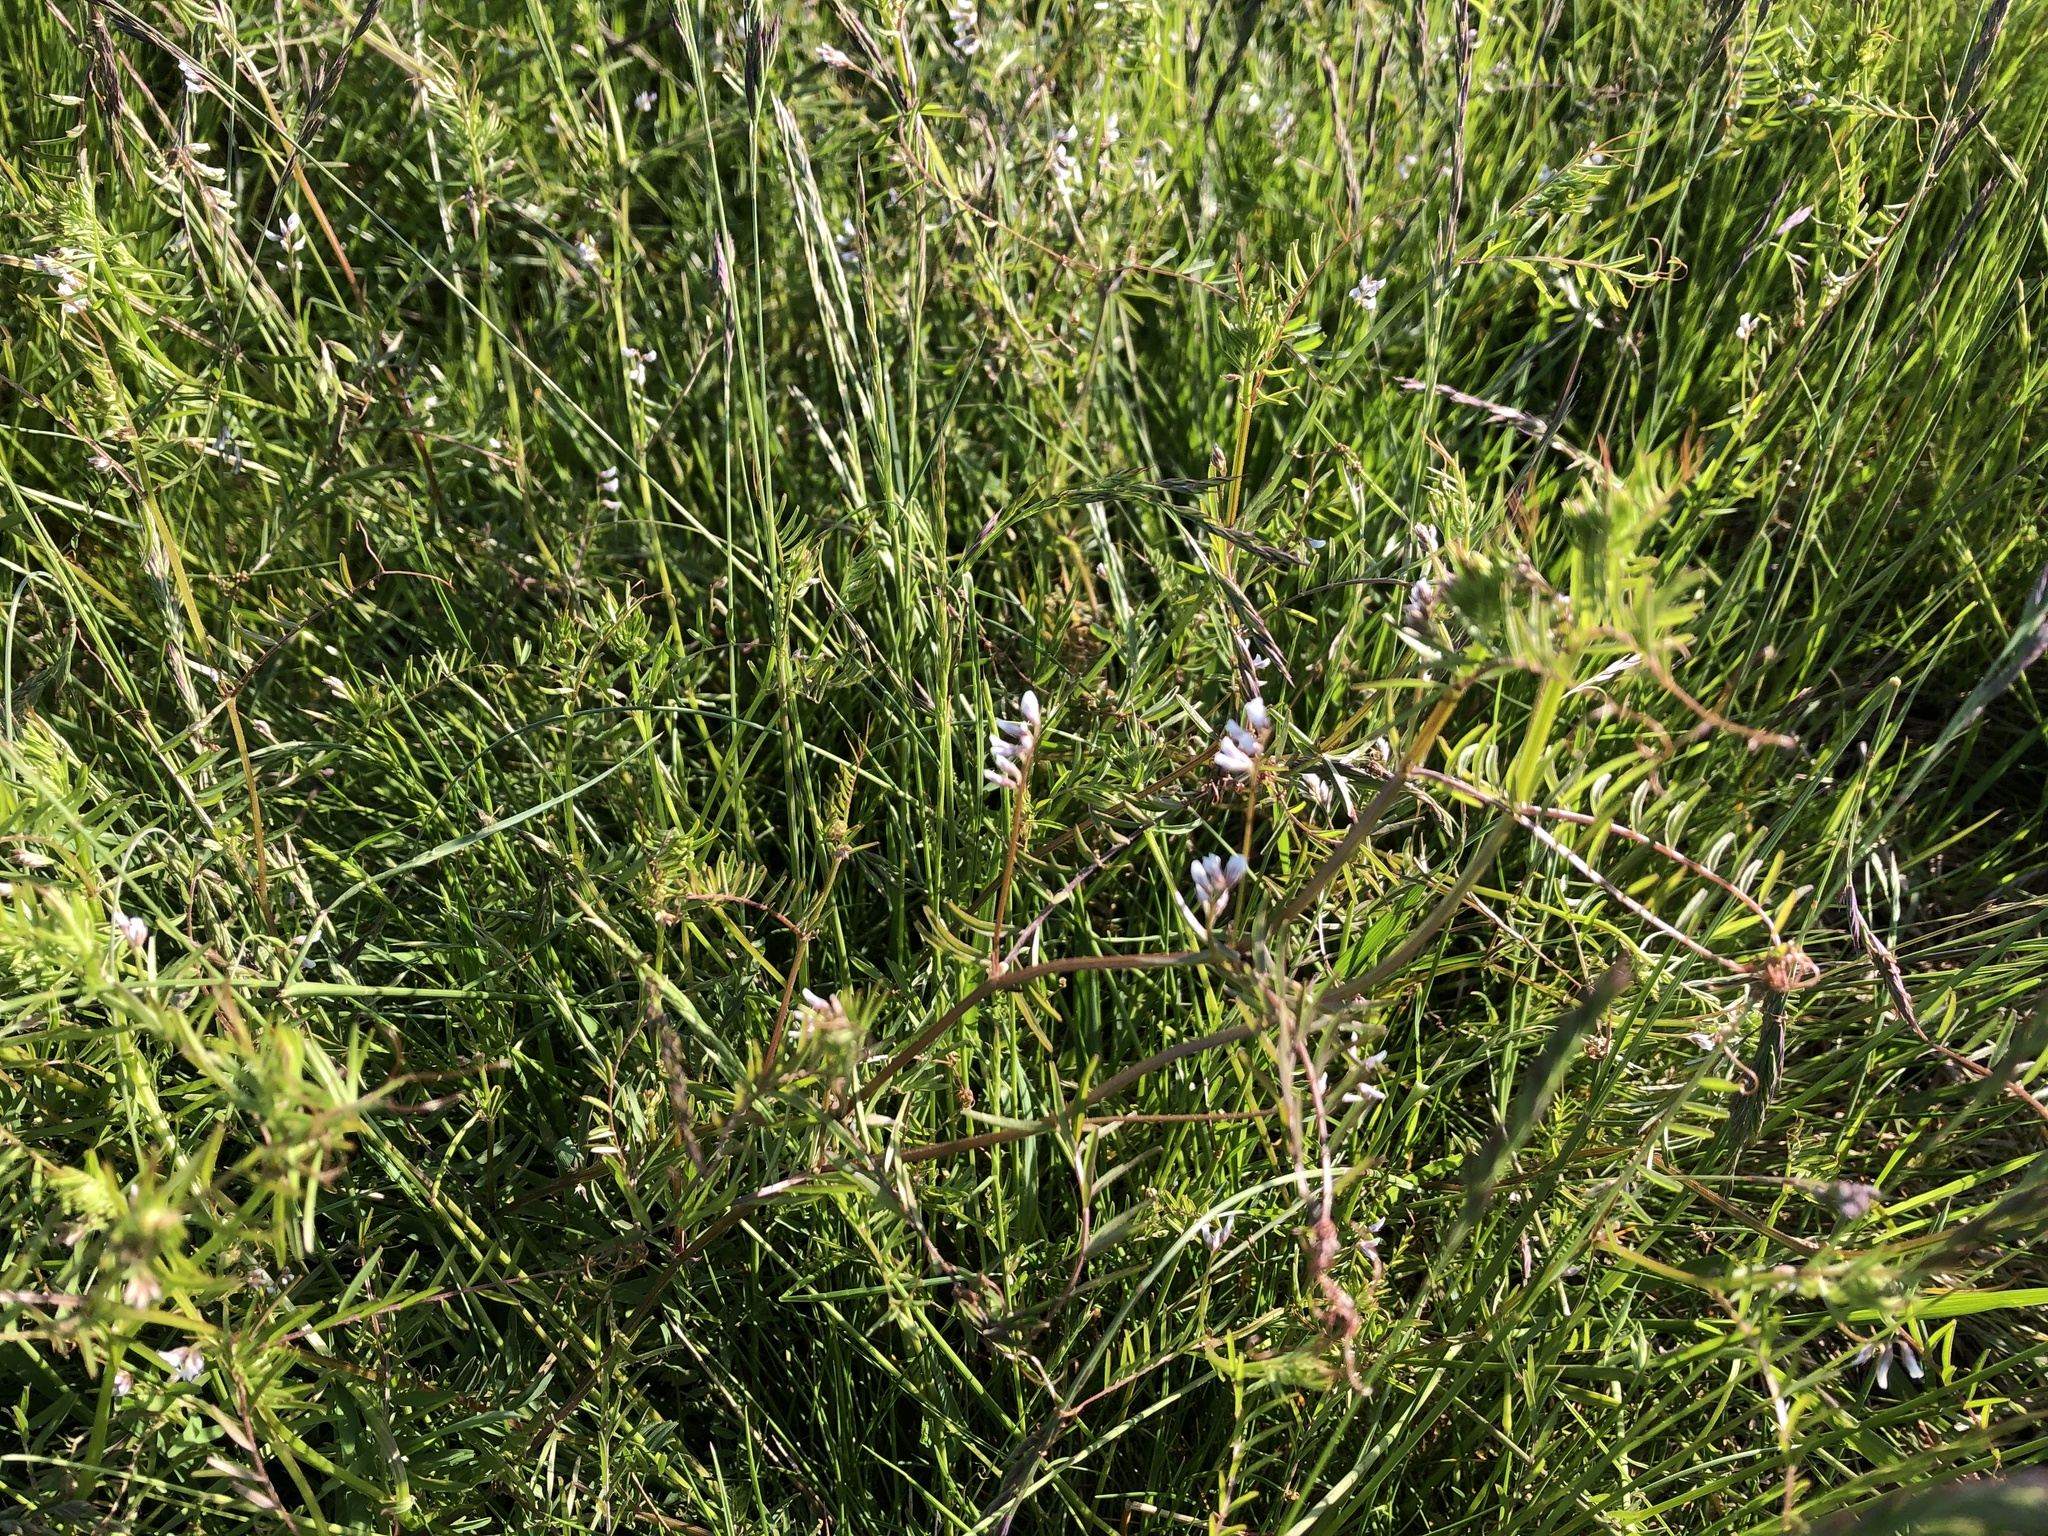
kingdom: Plantae
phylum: Tracheophyta
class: Magnoliopsida
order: Fabales
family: Fabaceae
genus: Vicia
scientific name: Vicia hirsuta
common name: Tiny vetch
